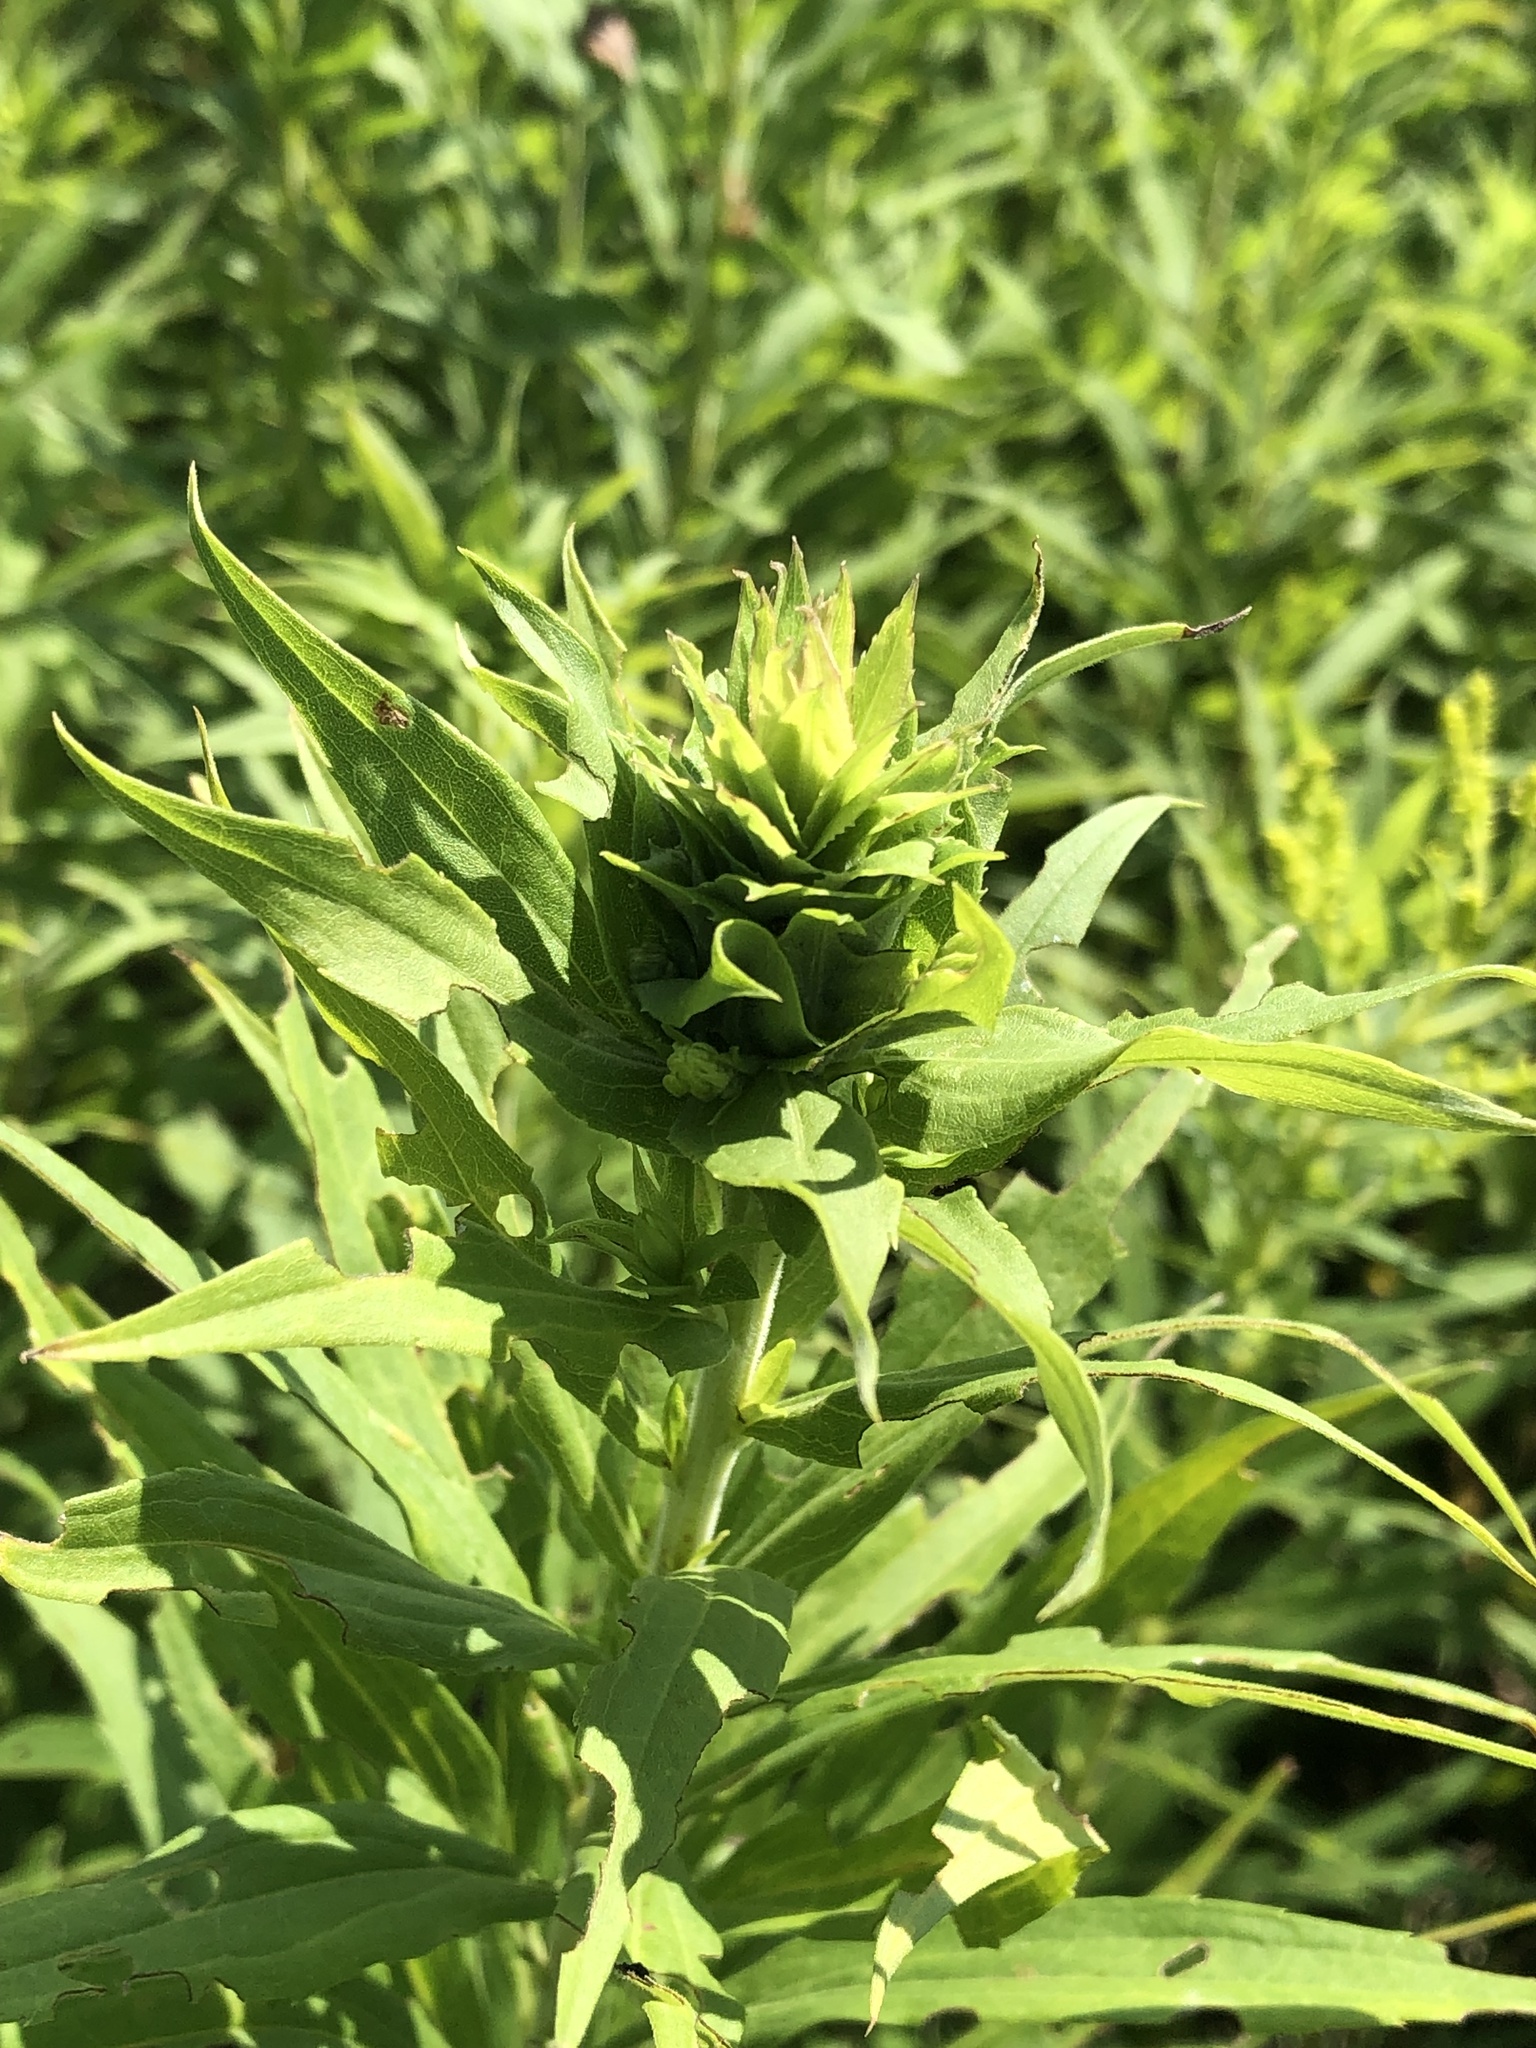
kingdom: Animalia
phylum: Arthropoda
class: Insecta
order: Diptera
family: Cecidomyiidae
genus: Rhopalomyia
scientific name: Rhopalomyia solidaginis
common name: Goldenrod bunch gall midge
